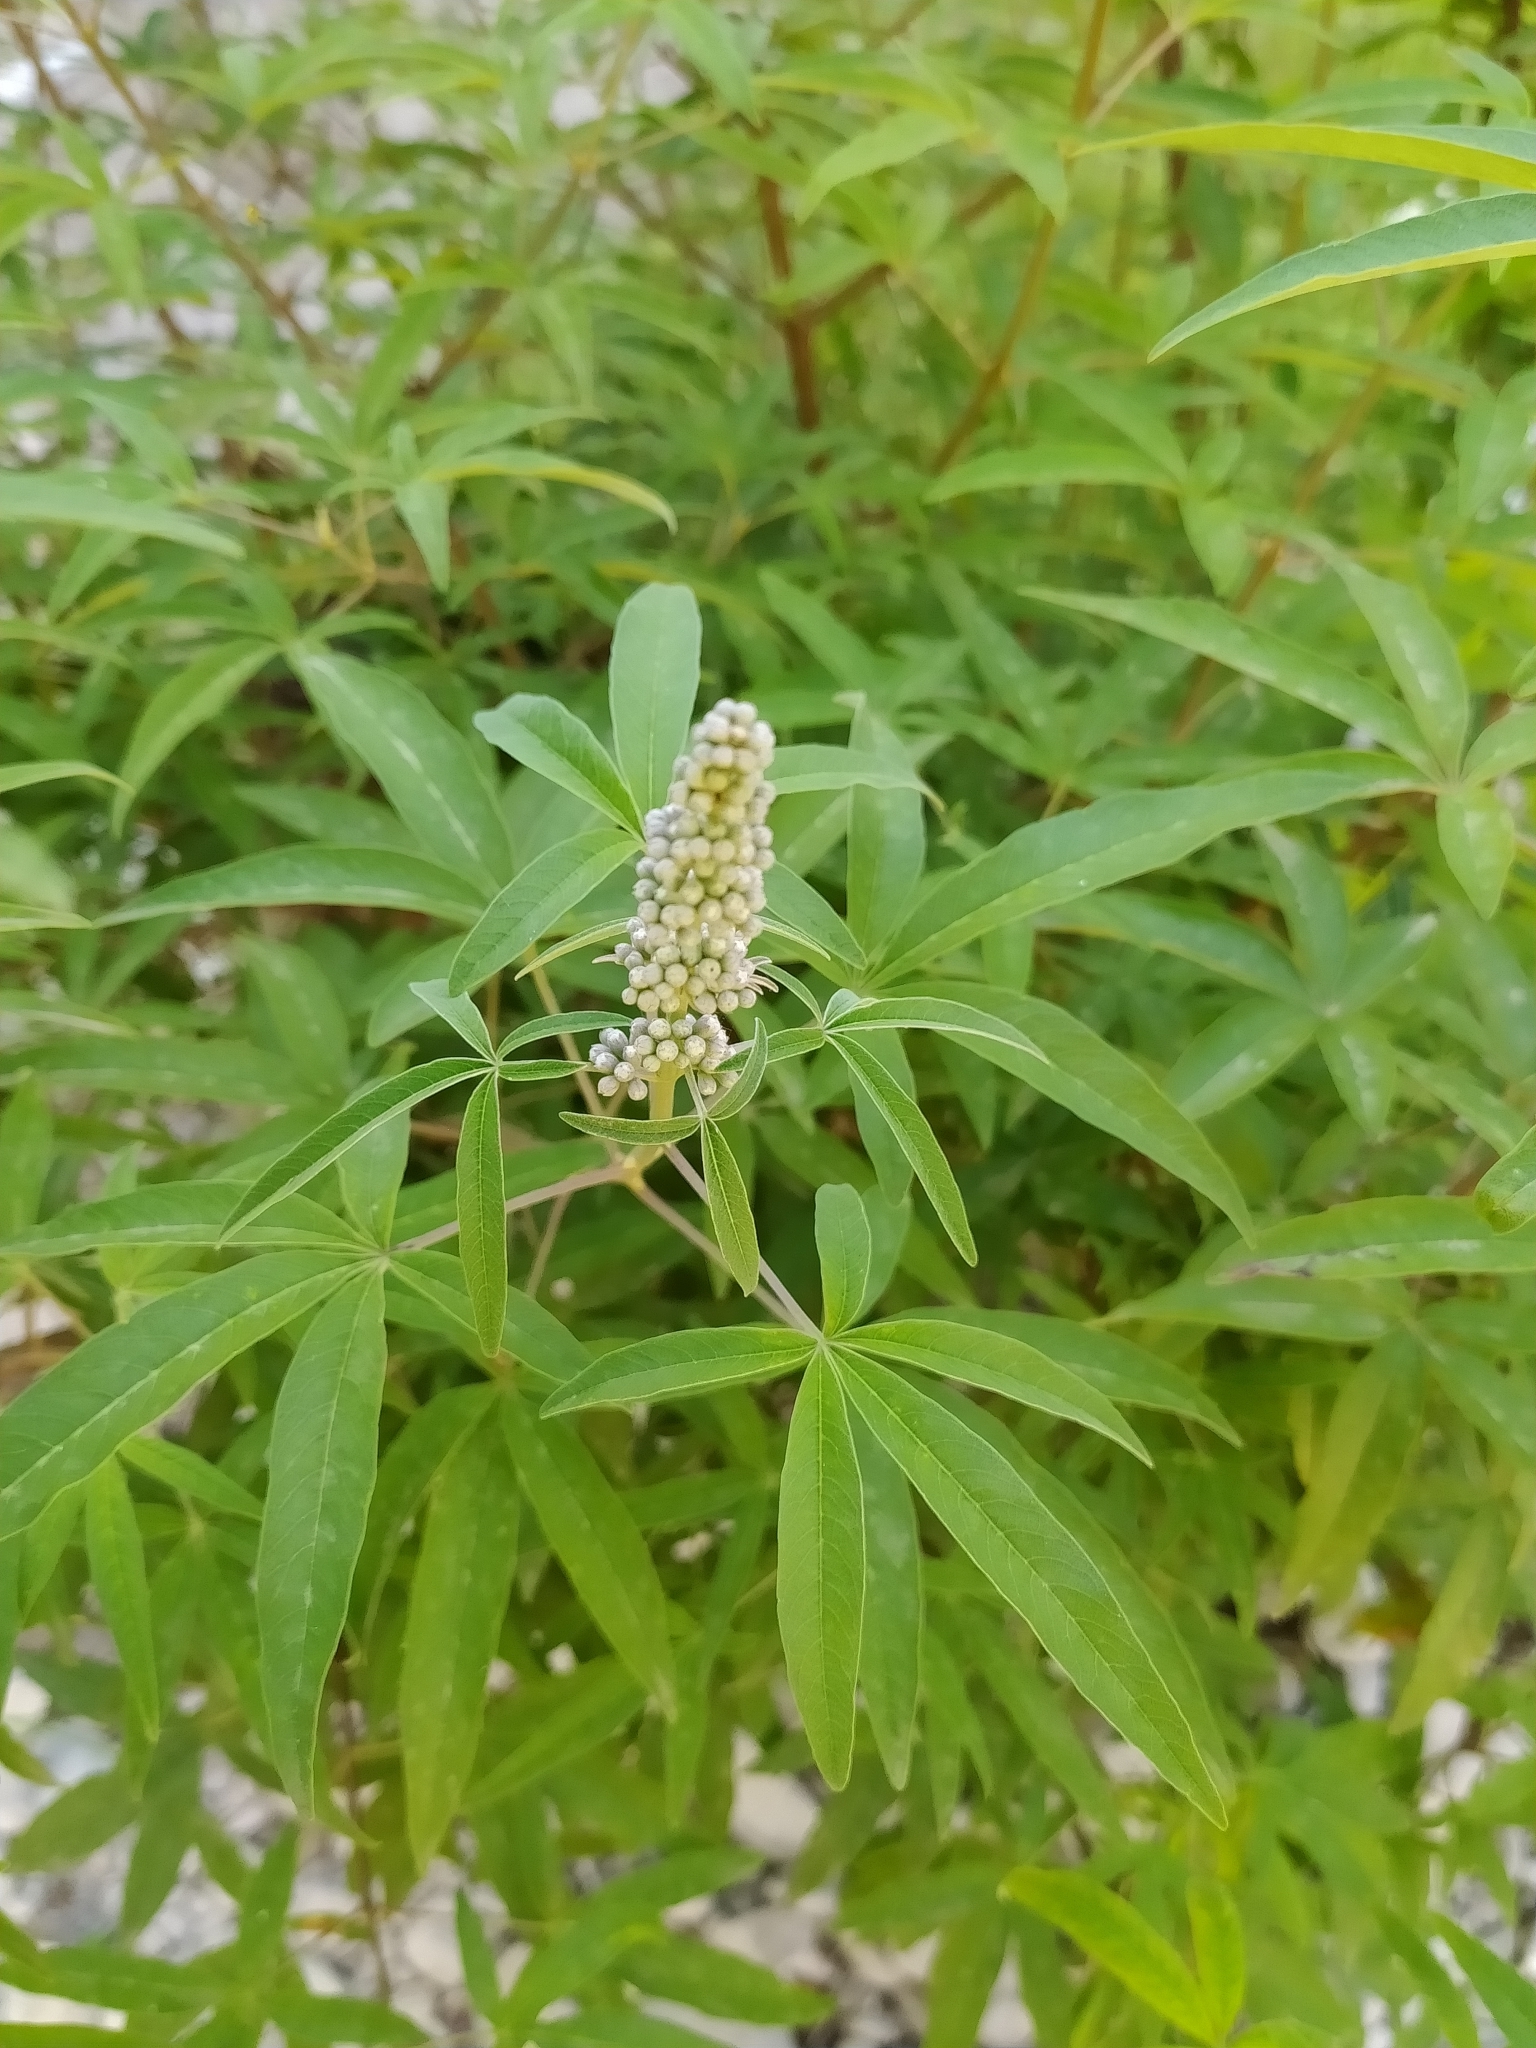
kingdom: Plantae
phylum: Tracheophyta
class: Magnoliopsida
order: Lamiales
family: Lamiaceae
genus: Vitex
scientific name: Vitex agnus-castus
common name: Chasteberry
